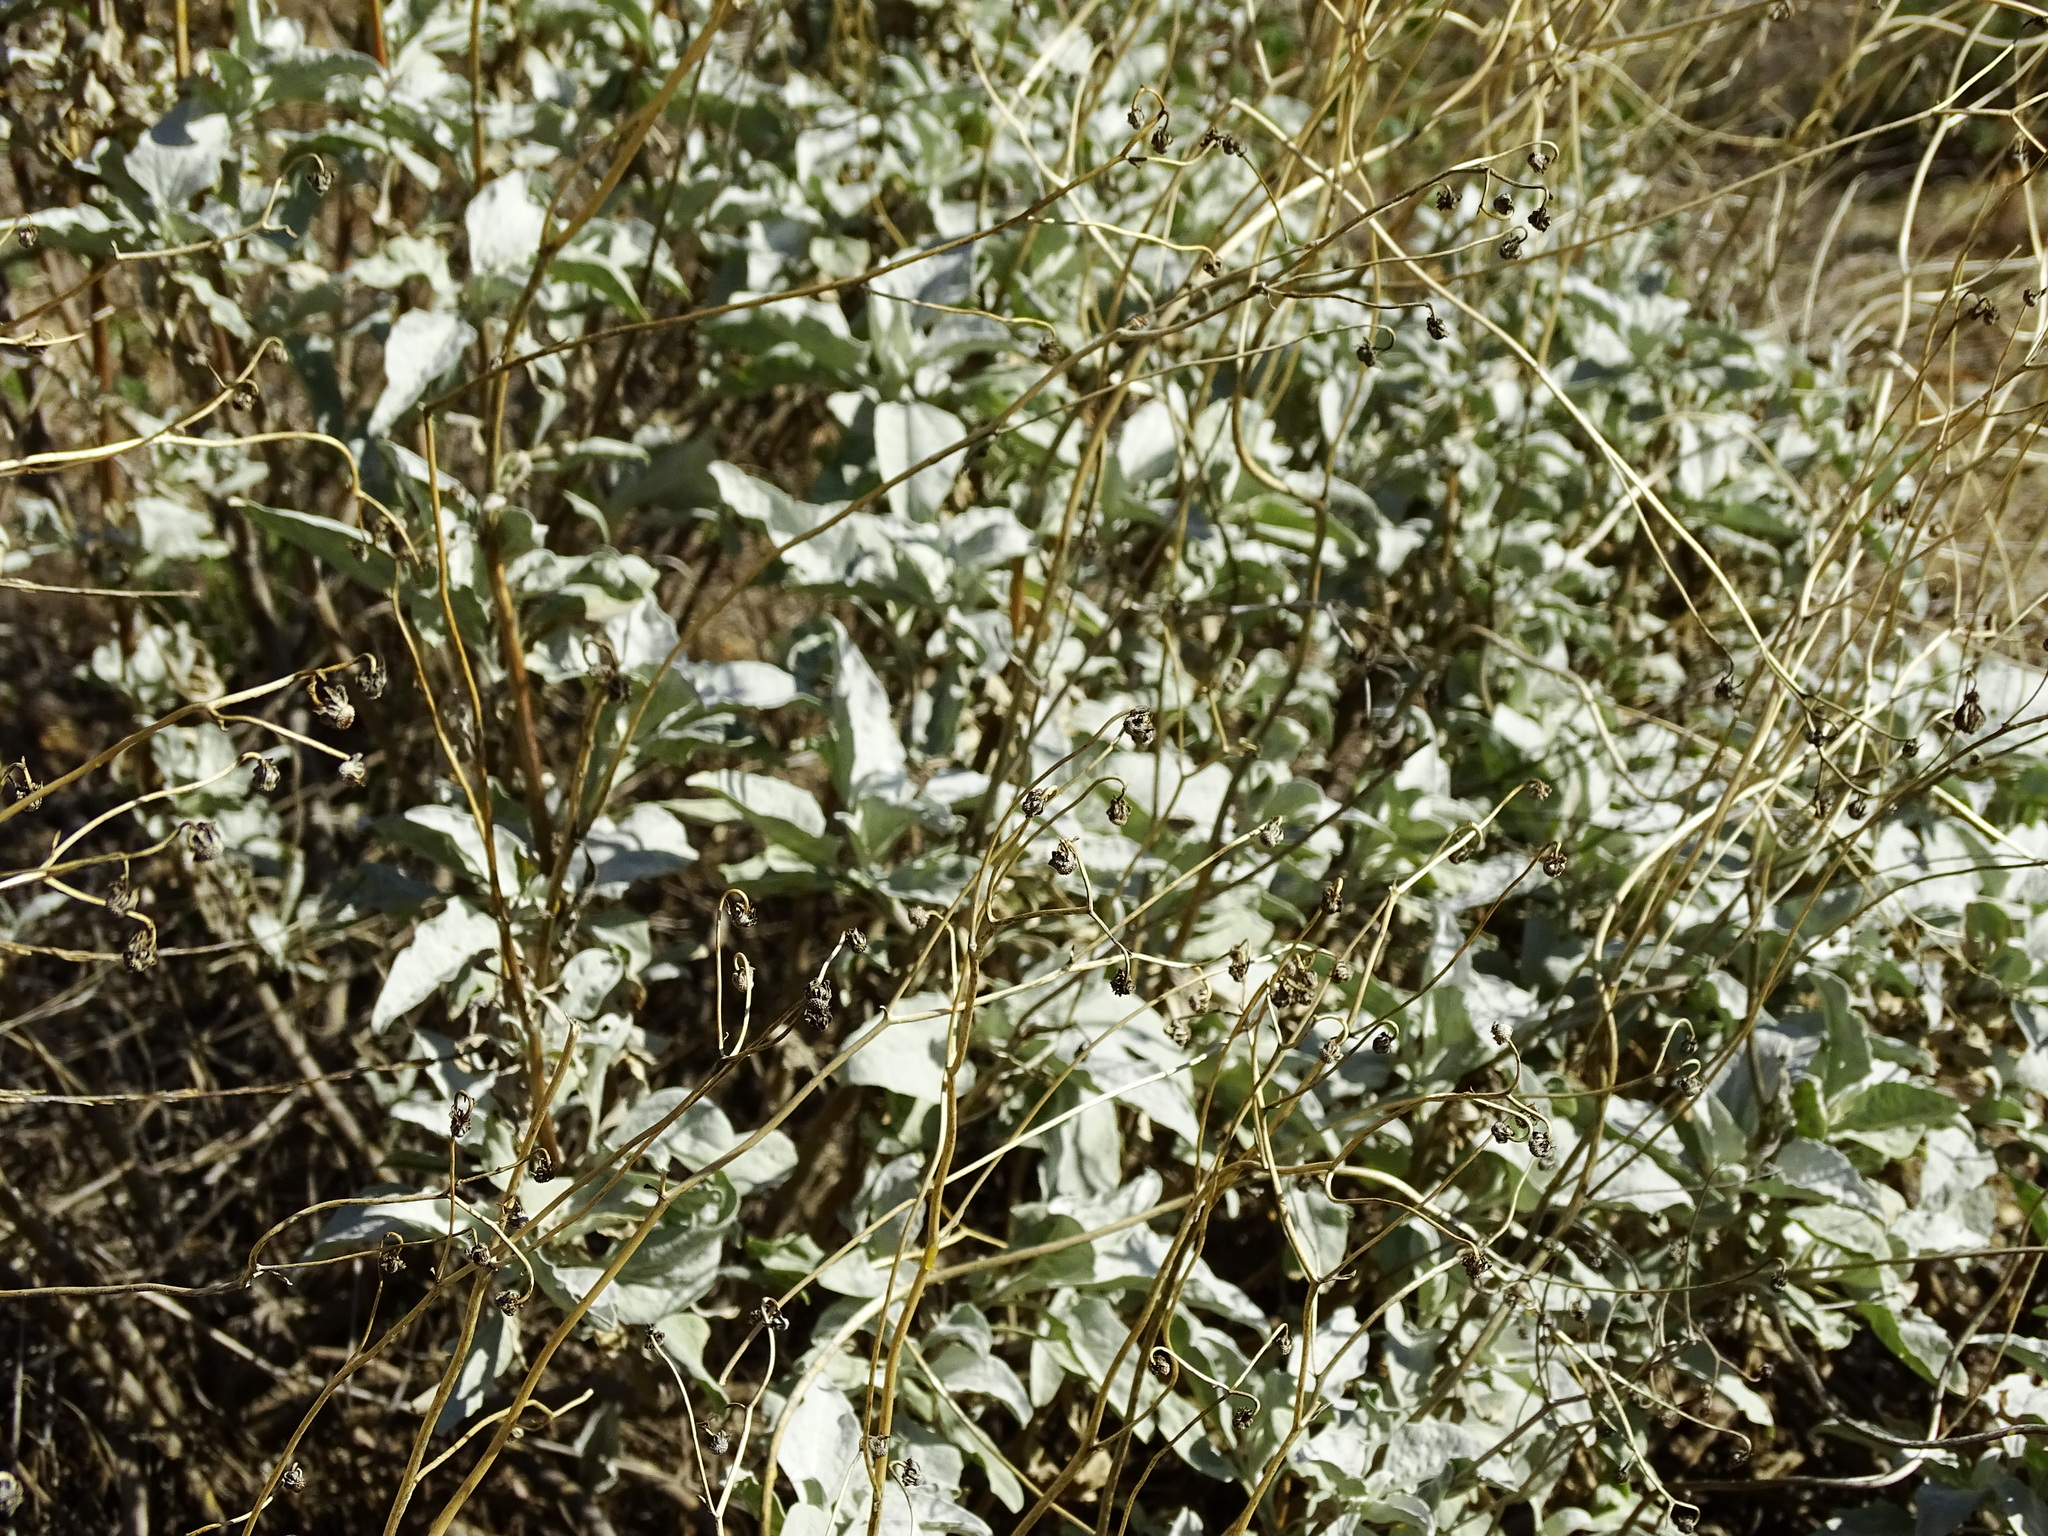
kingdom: Plantae
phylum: Tracheophyta
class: Magnoliopsida
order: Asterales
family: Asteraceae
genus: Encelia
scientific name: Encelia farinosa
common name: Brittlebush
